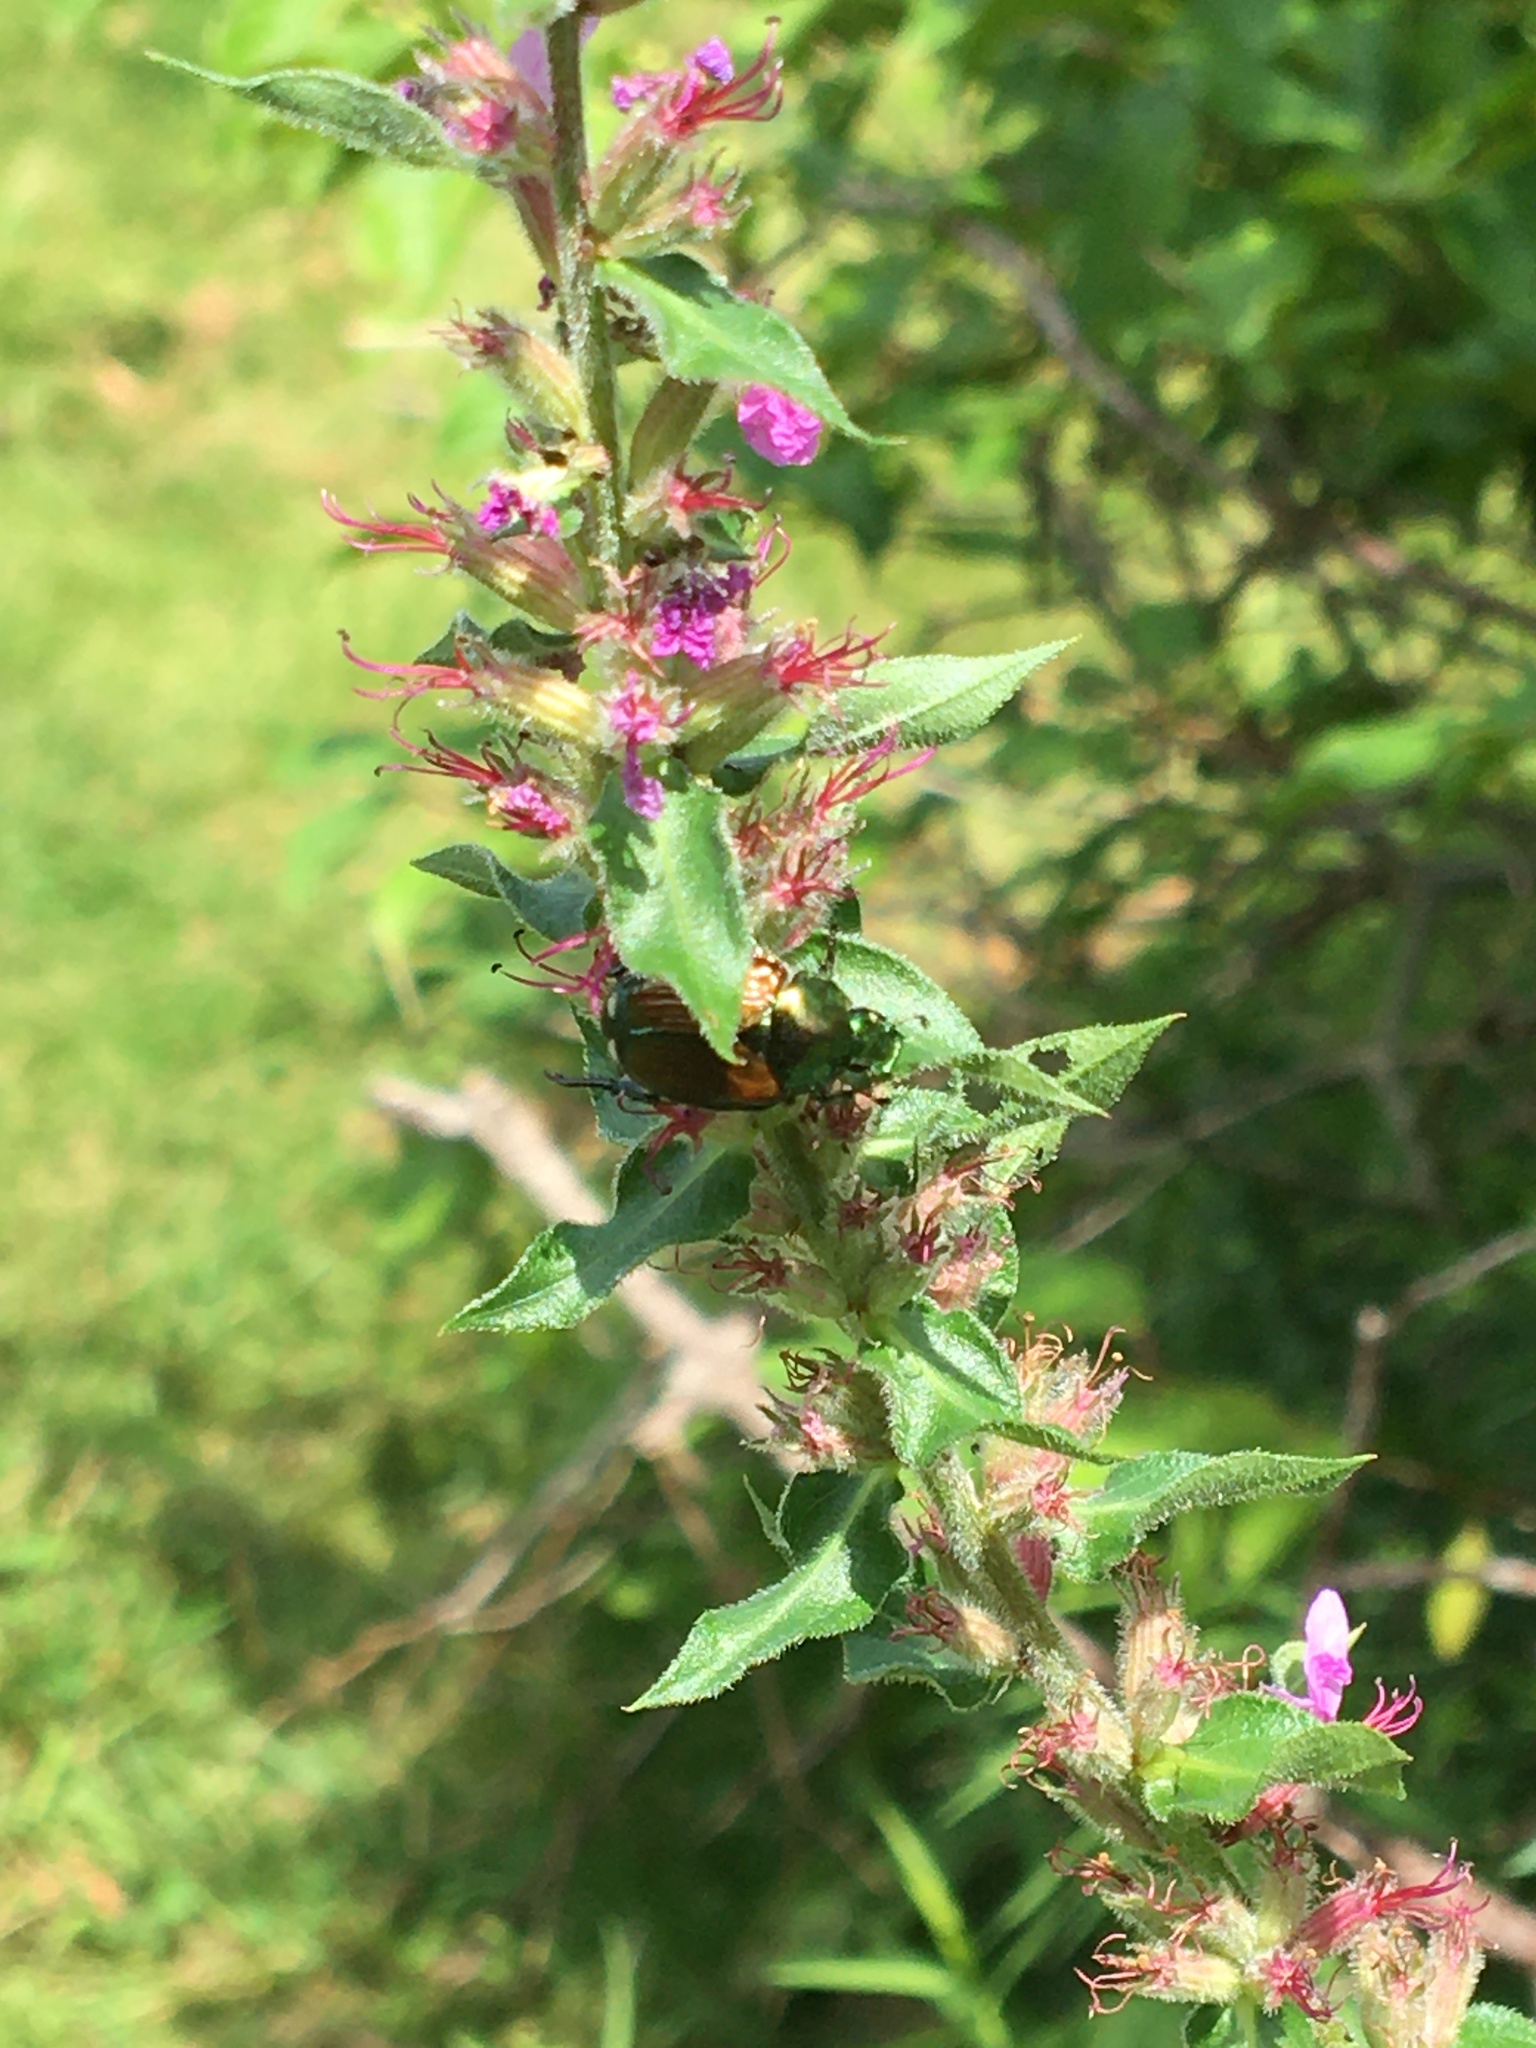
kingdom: Animalia
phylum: Arthropoda
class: Insecta
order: Coleoptera
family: Scarabaeidae
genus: Popillia
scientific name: Popillia japonica
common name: Japanese beetle
